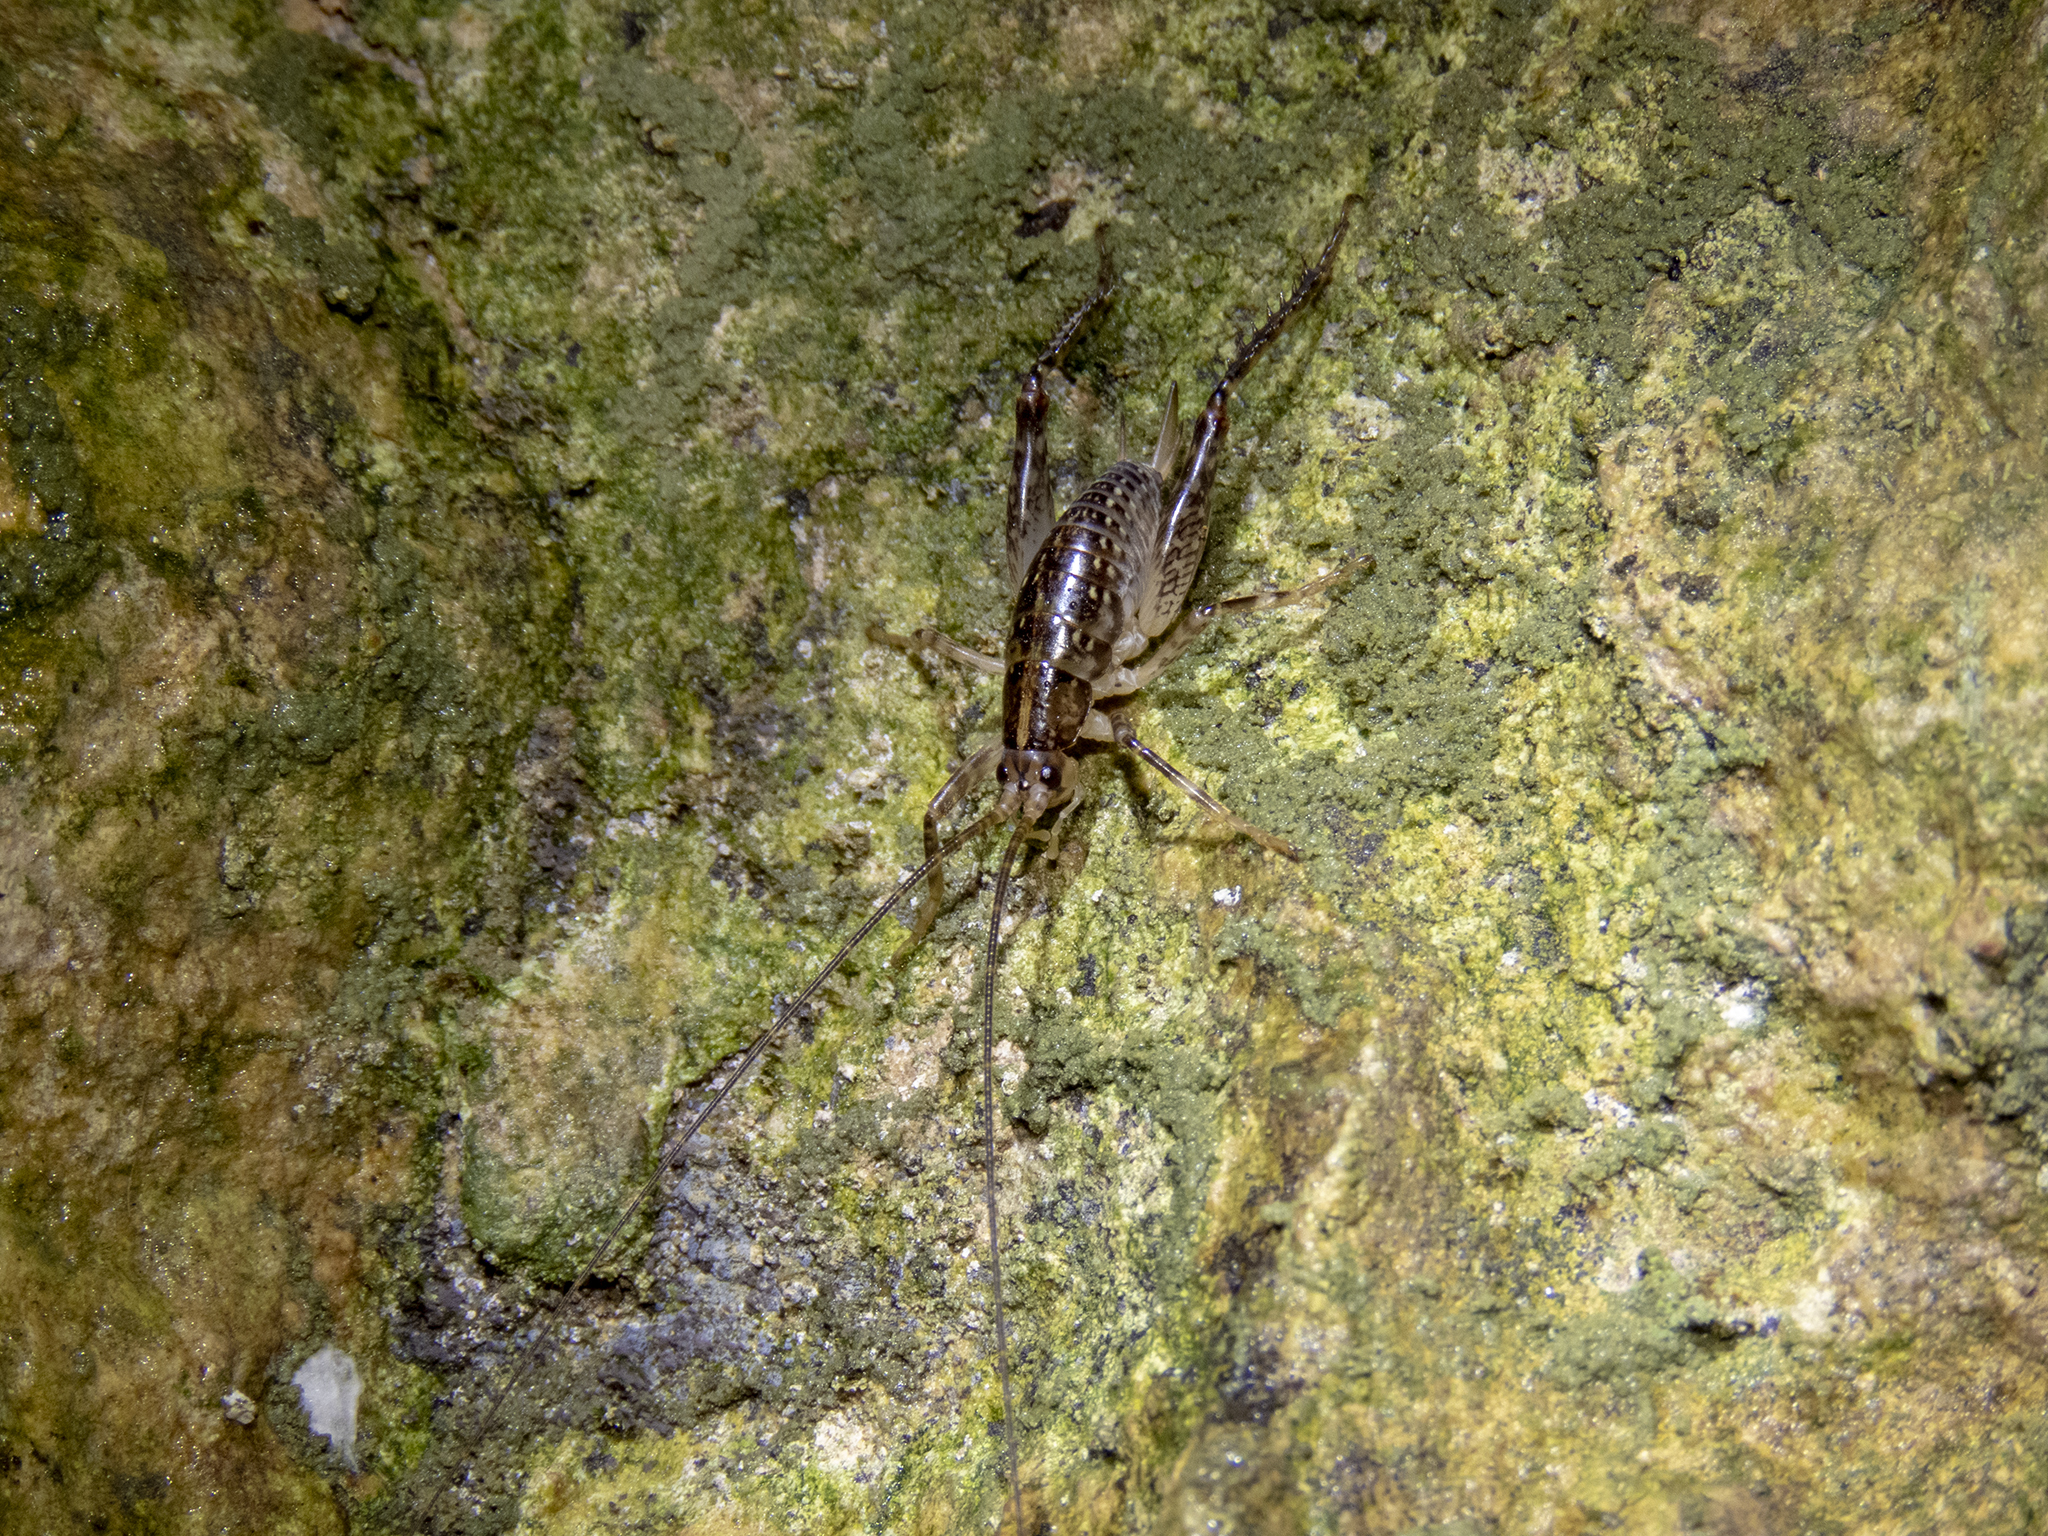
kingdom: Animalia
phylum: Arthropoda
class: Insecta
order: Orthoptera
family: Rhaphidophoridae
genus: Talitropsis
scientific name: Talitropsis sedilloti
